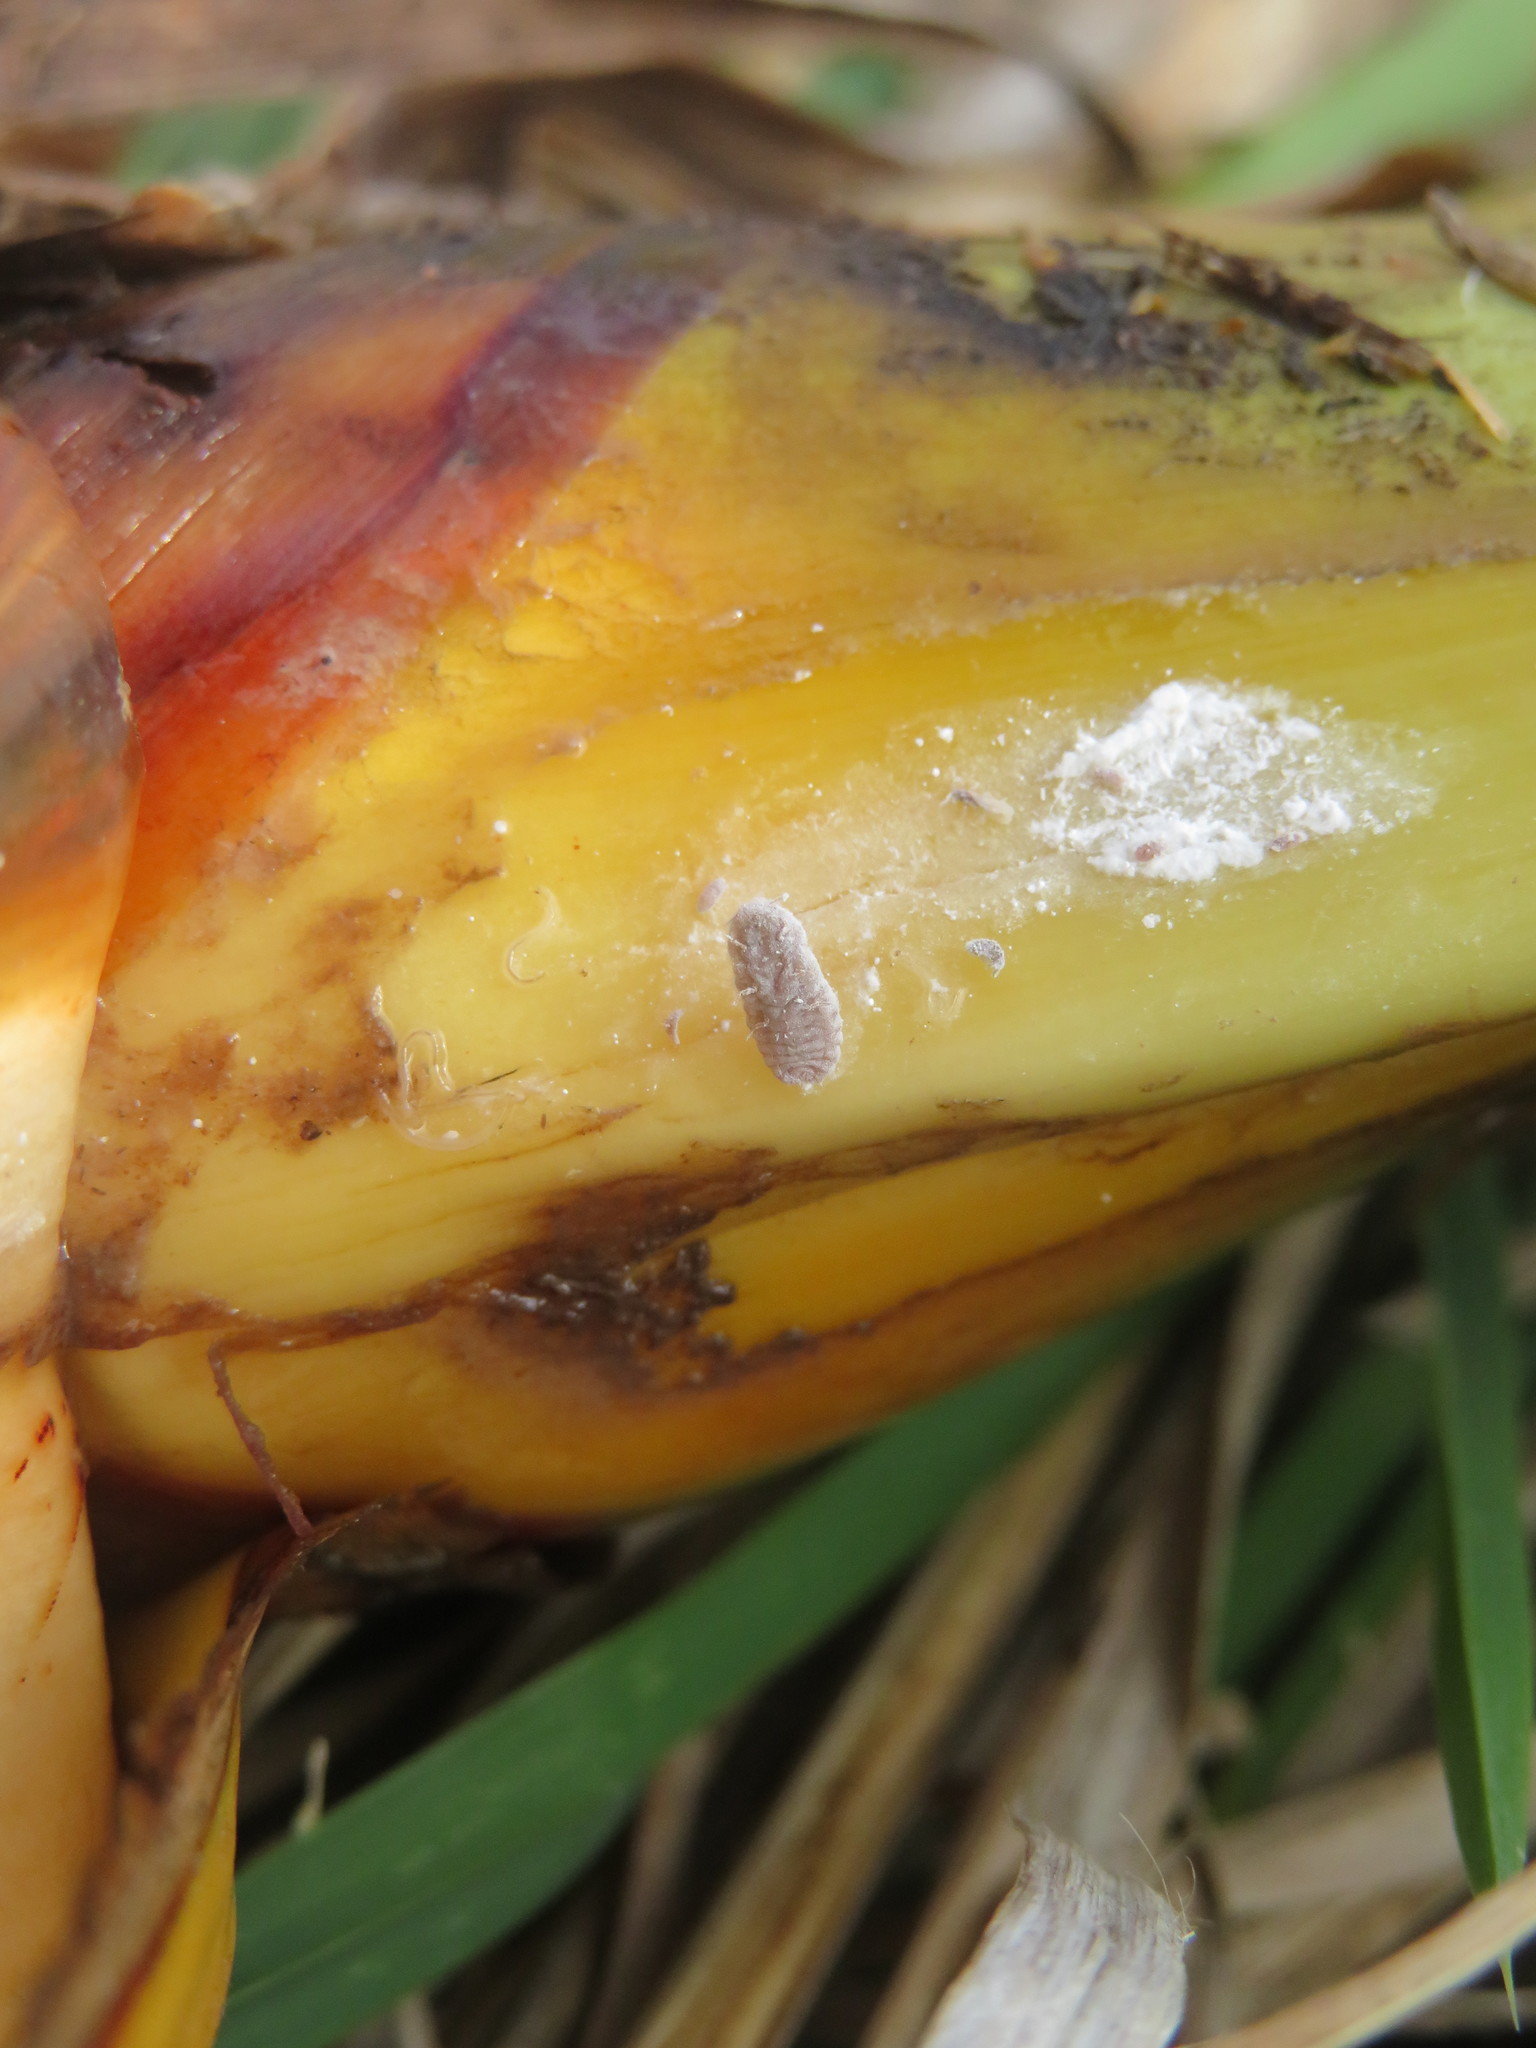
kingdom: Animalia
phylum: Arthropoda
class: Insecta
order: Hemiptera
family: Pseudococcidae
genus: Balanococcus
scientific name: Balanococcus diminutus
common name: New zealand flax mealybug
